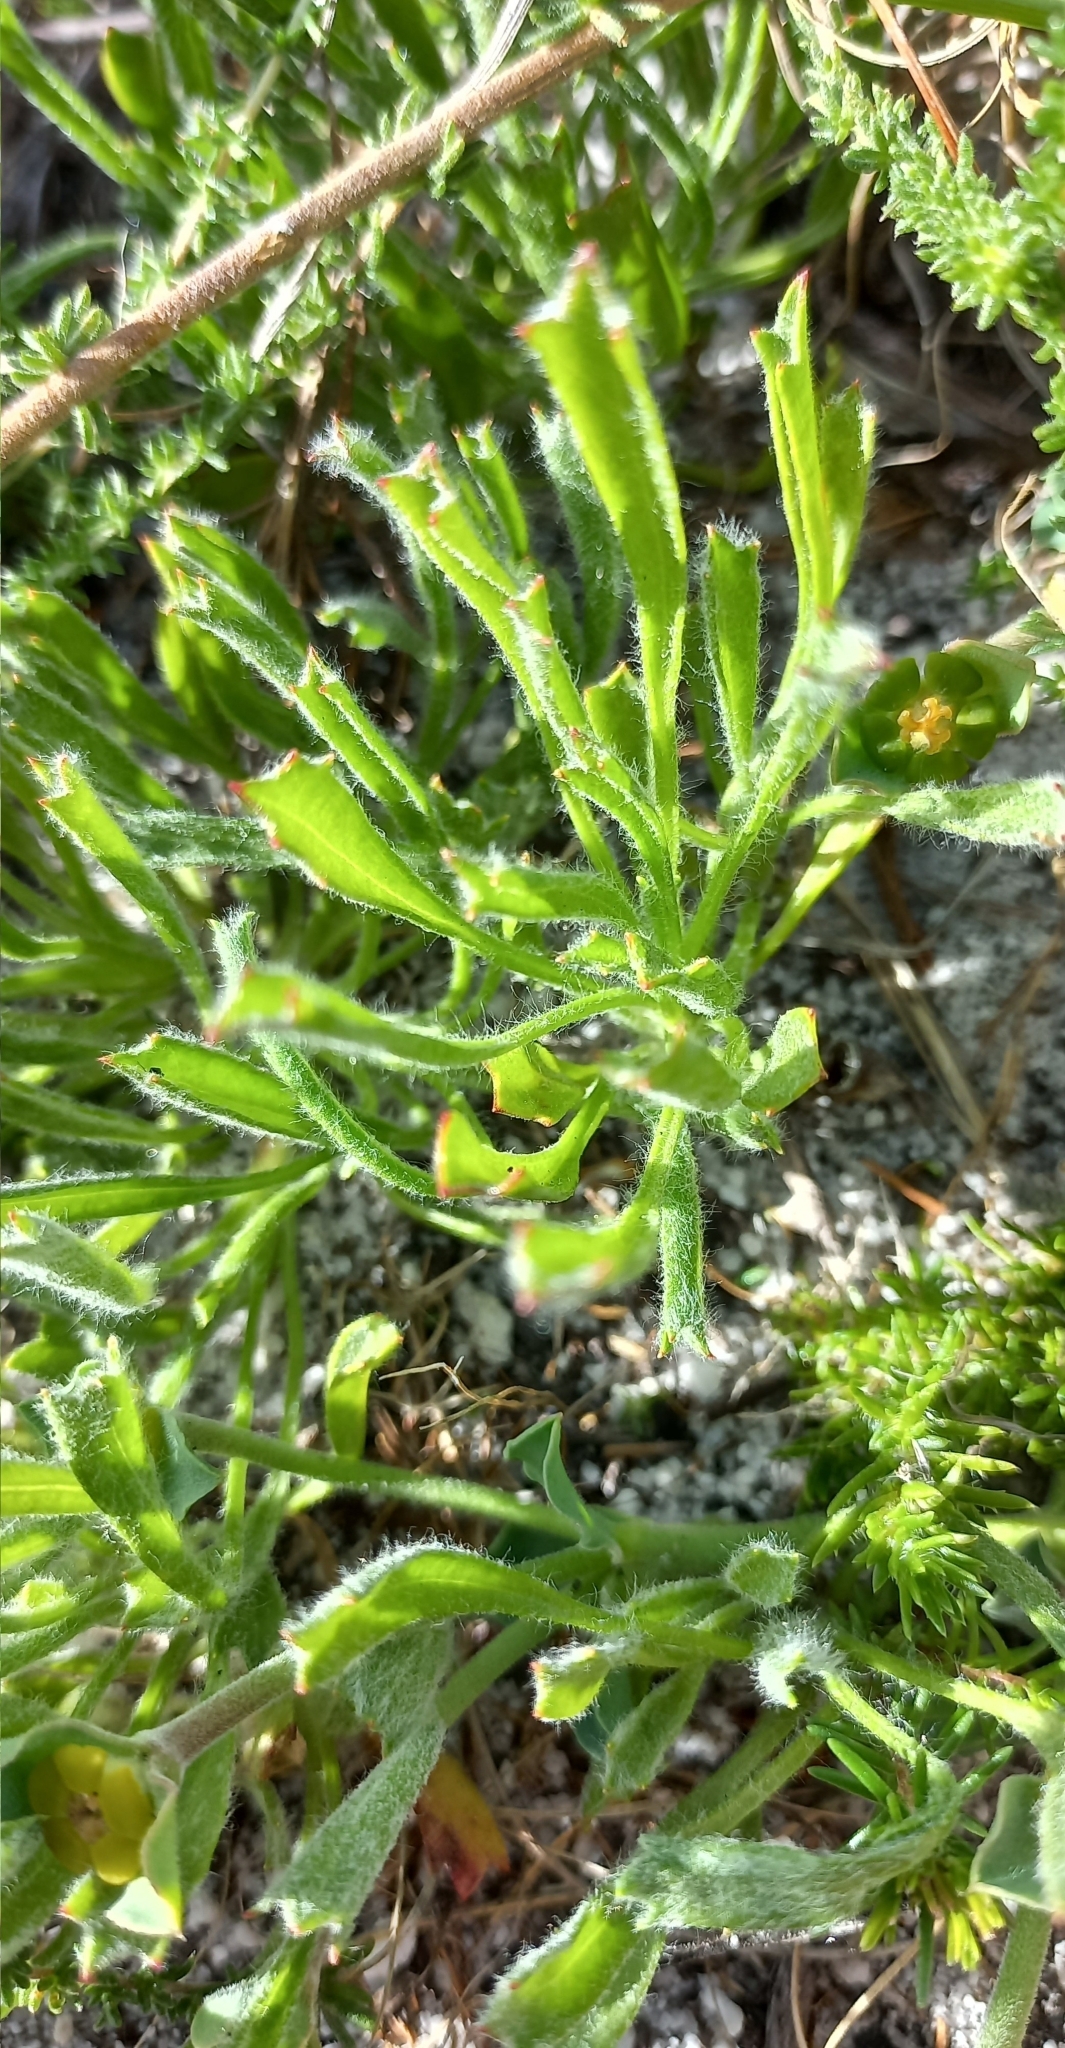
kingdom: Plantae
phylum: Tracheophyta
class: Magnoliopsida
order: Apiales
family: Apiaceae
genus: Centella
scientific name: Centella tridentata
